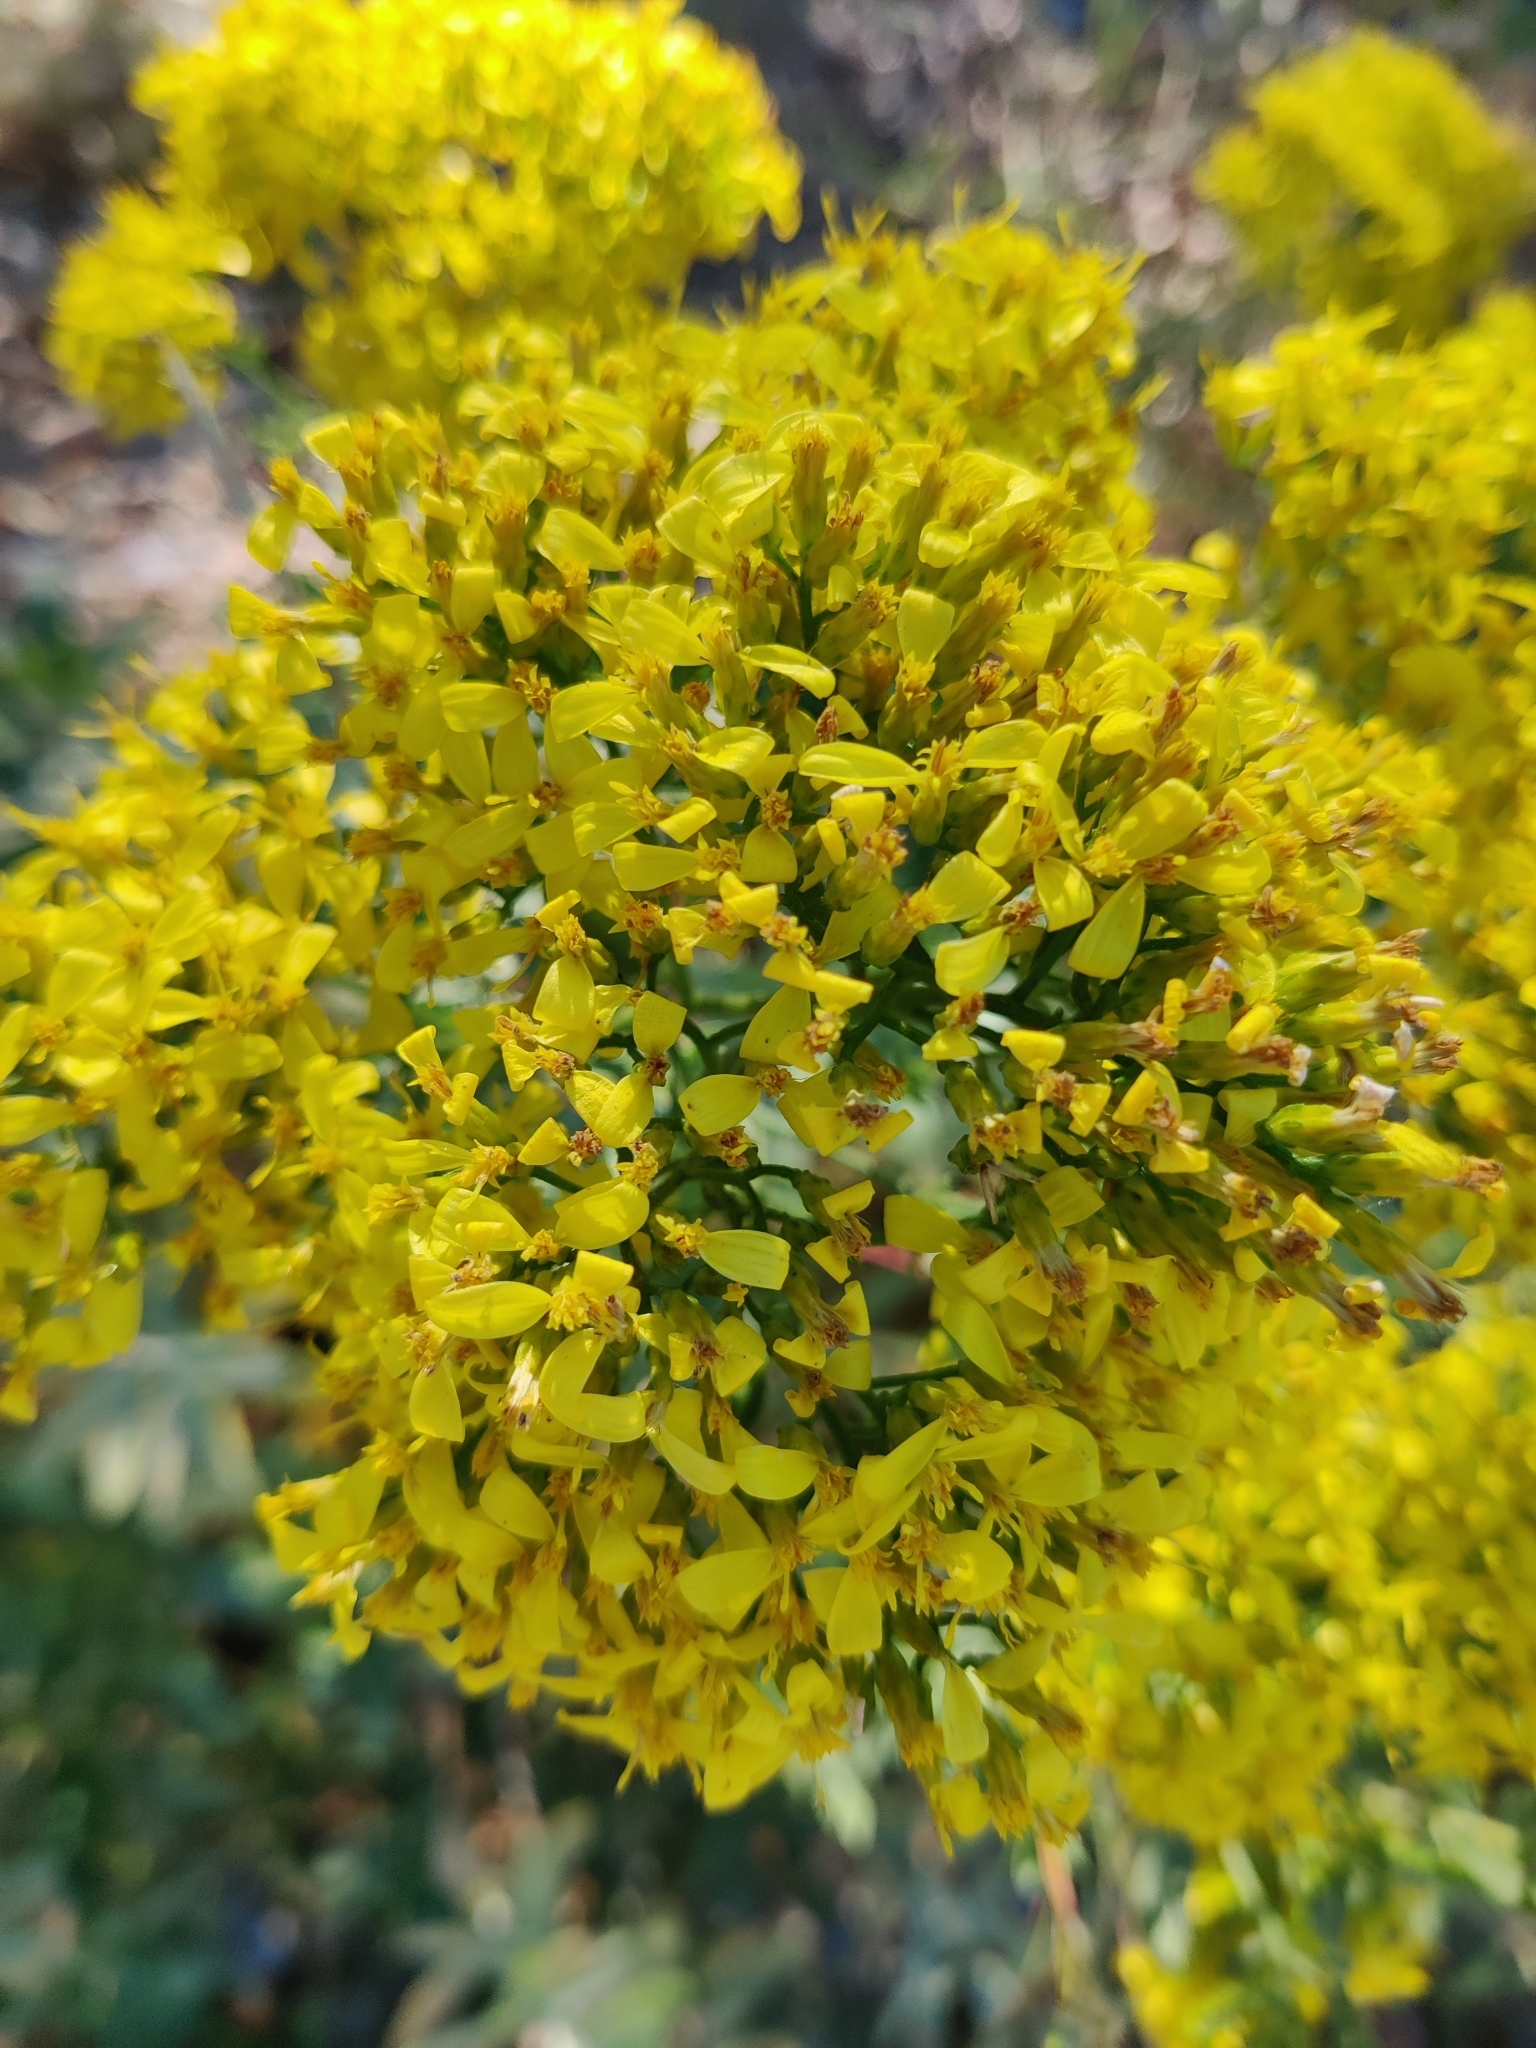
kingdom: Plantae
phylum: Tracheophyta
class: Magnoliopsida
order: Asterales
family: Asteraceae
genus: Chrysoma
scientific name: Chrysoma pauciflosculosa
